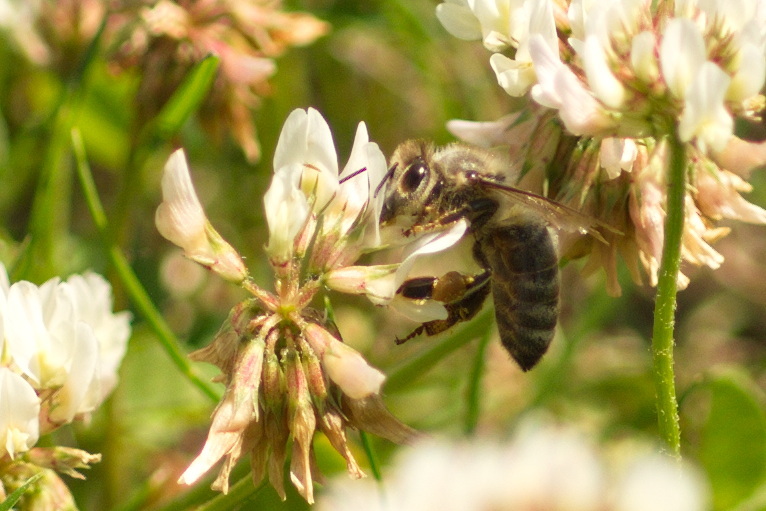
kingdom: Animalia
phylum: Arthropoda
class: Insecta
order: Hymenoptera
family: Apidae
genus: Apis
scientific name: Apis mellifera
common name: Honey bee
